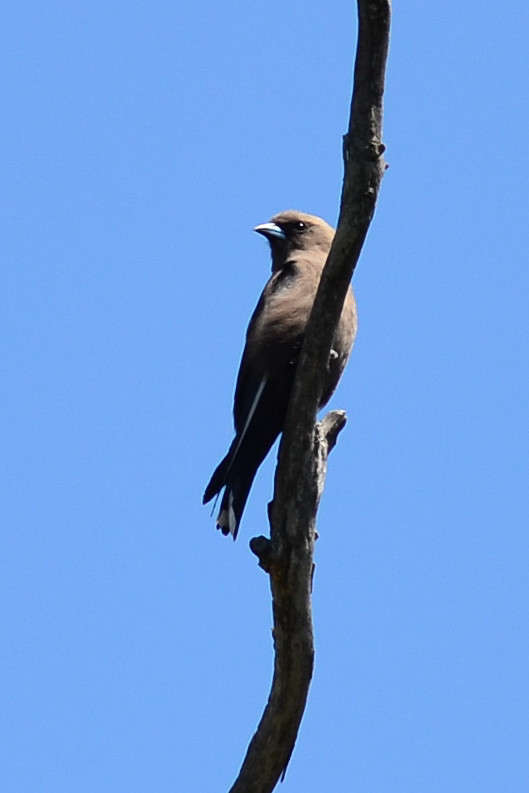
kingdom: Animalia
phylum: Chordata
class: Aves
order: Passeriformes
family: Artamidae
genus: Artamus
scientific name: Artamus cyanopterus
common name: Dusky woodswallow
